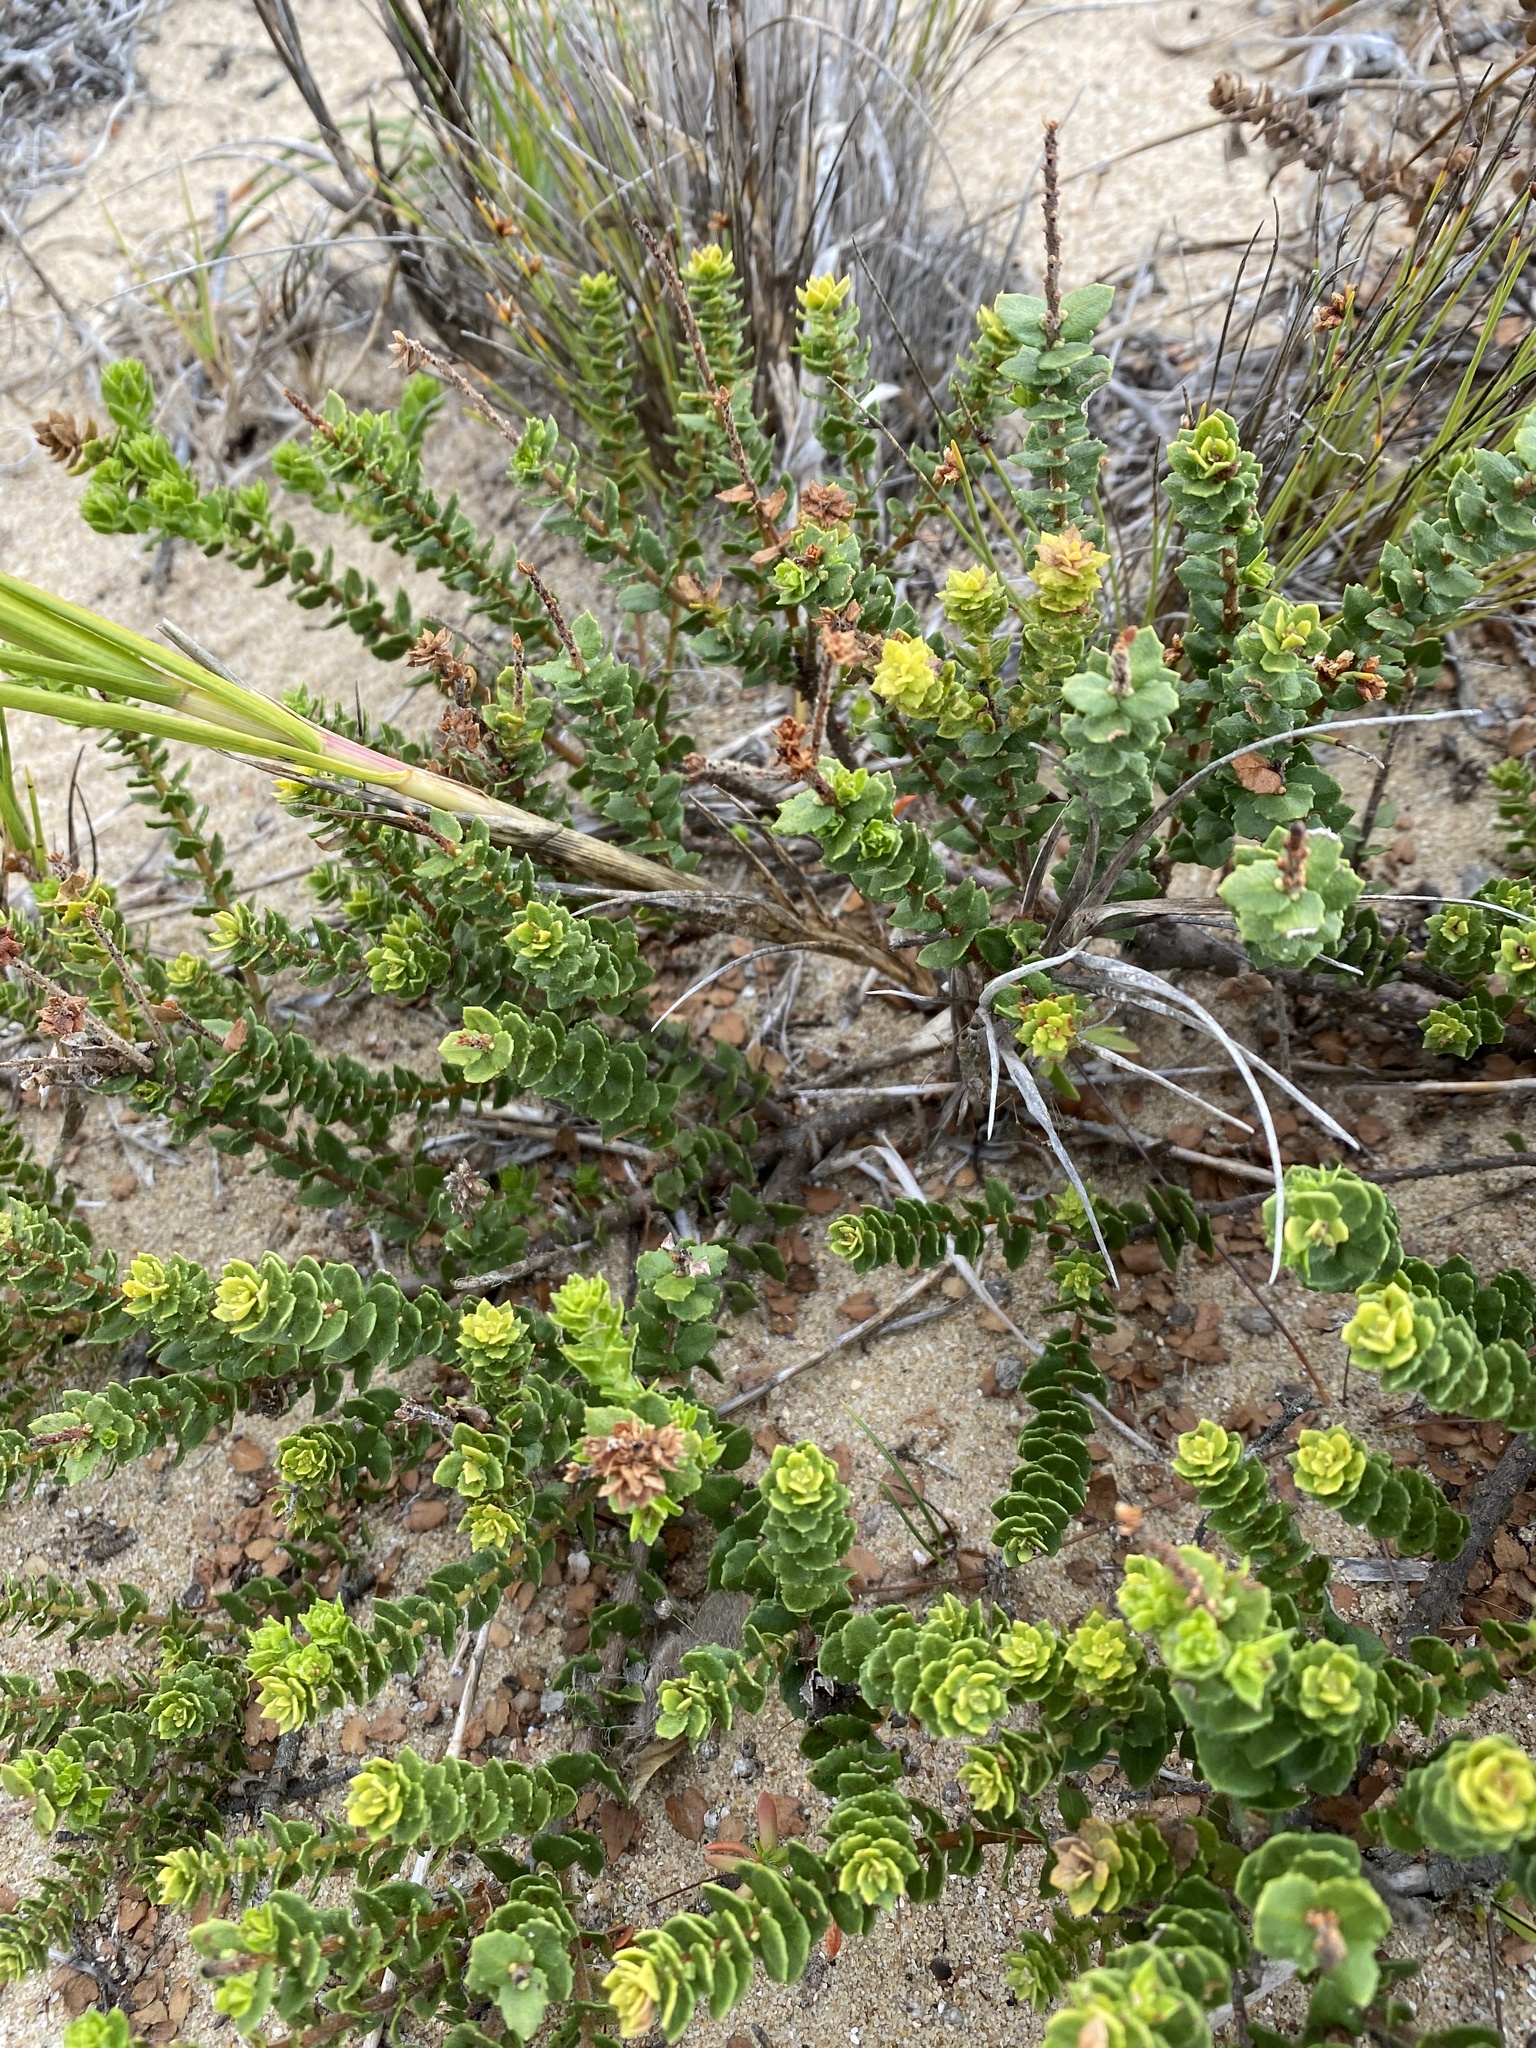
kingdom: Plantae
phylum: Tracheophyta
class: Magnoliopsida
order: Fagales
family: Myricaceae
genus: Morella
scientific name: Morella cordifolia
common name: Waxberry
